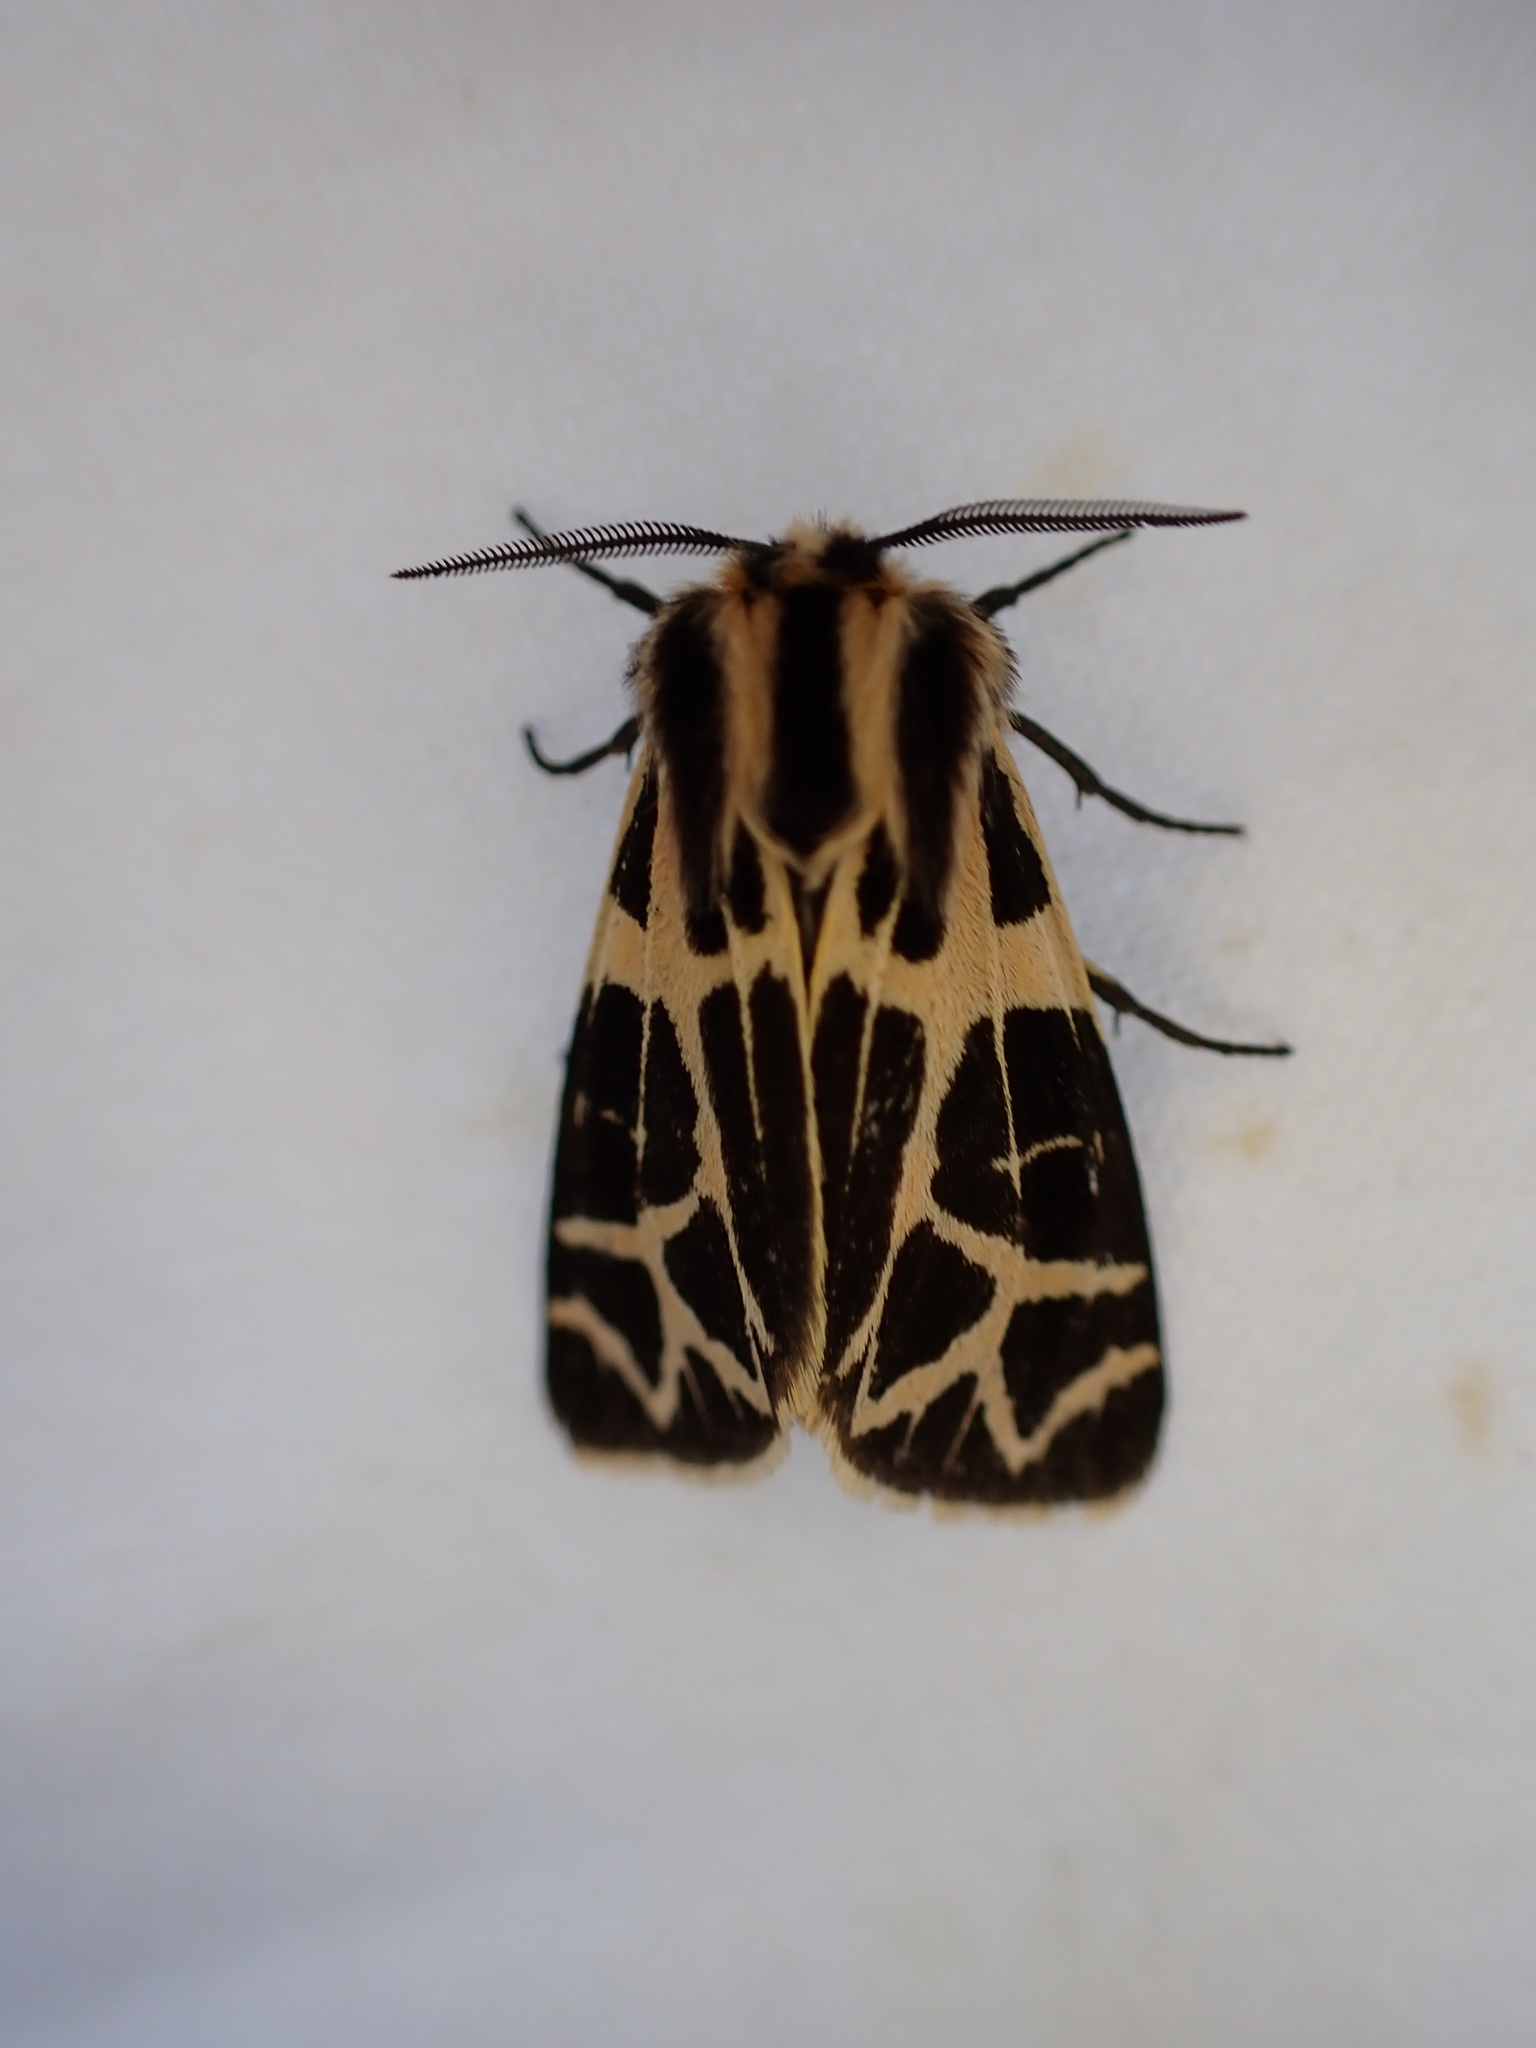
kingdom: Animalia
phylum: Arthropoda
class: Insecta
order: Lepidoptera
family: Erebidae
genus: Apantesis
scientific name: Apantesis
